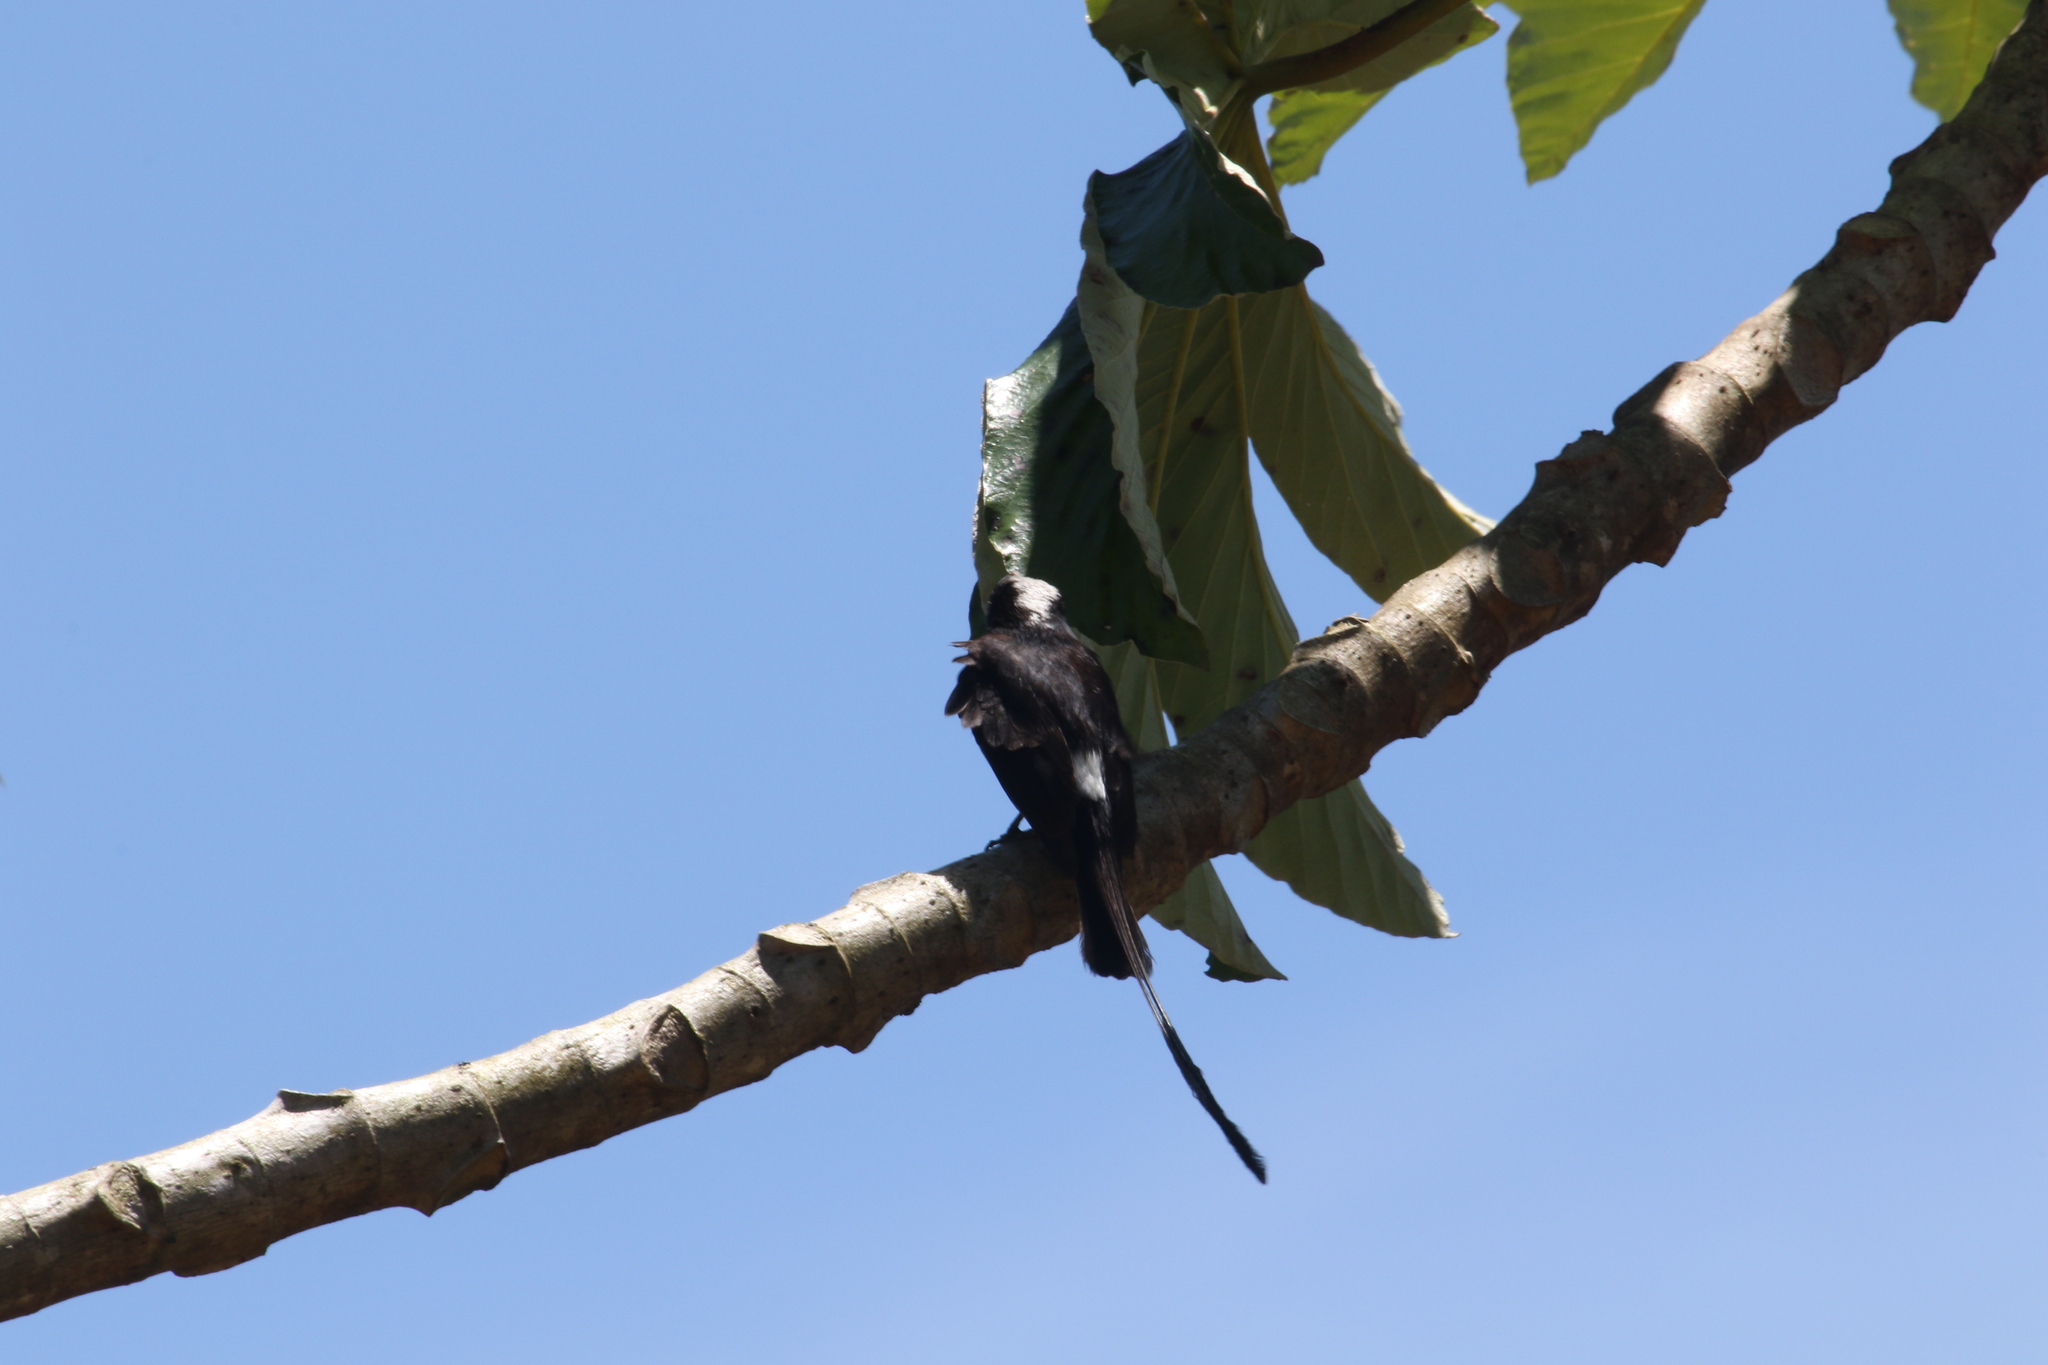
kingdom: Animalia
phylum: Chordata
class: Aves
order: Passeriformes
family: Tyrannidae
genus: Colonia
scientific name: Colonia colonus
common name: Long-tailed tyrant
